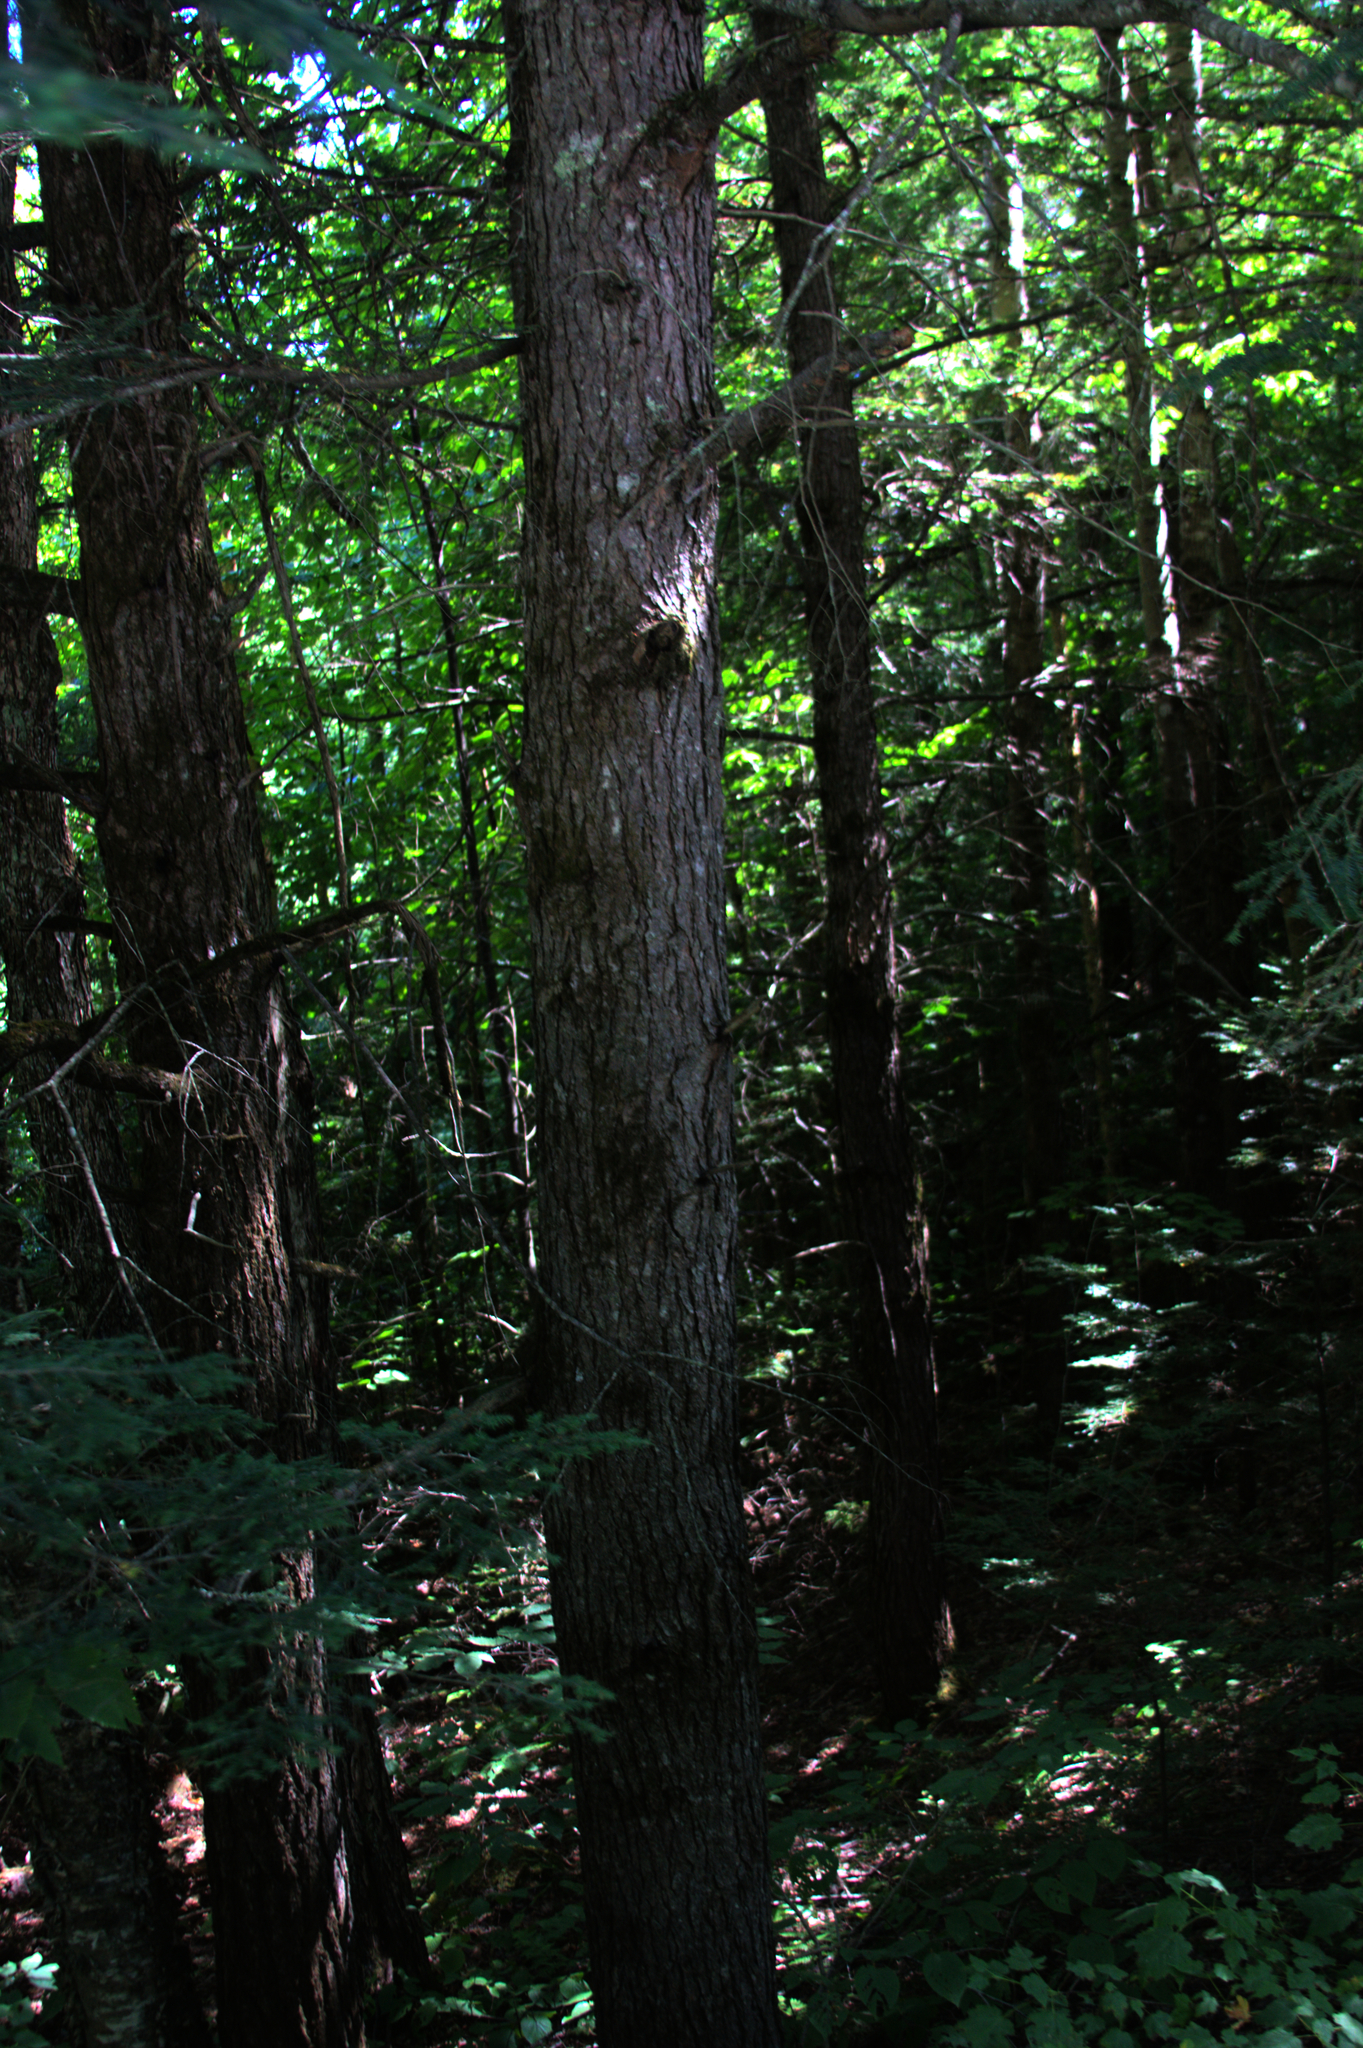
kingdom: Plantae
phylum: Tracheophyta
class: Pinopsida
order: Pinales
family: Pinaceae
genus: Tsuga
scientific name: Tsuga canadensis
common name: Eastern hemlock
